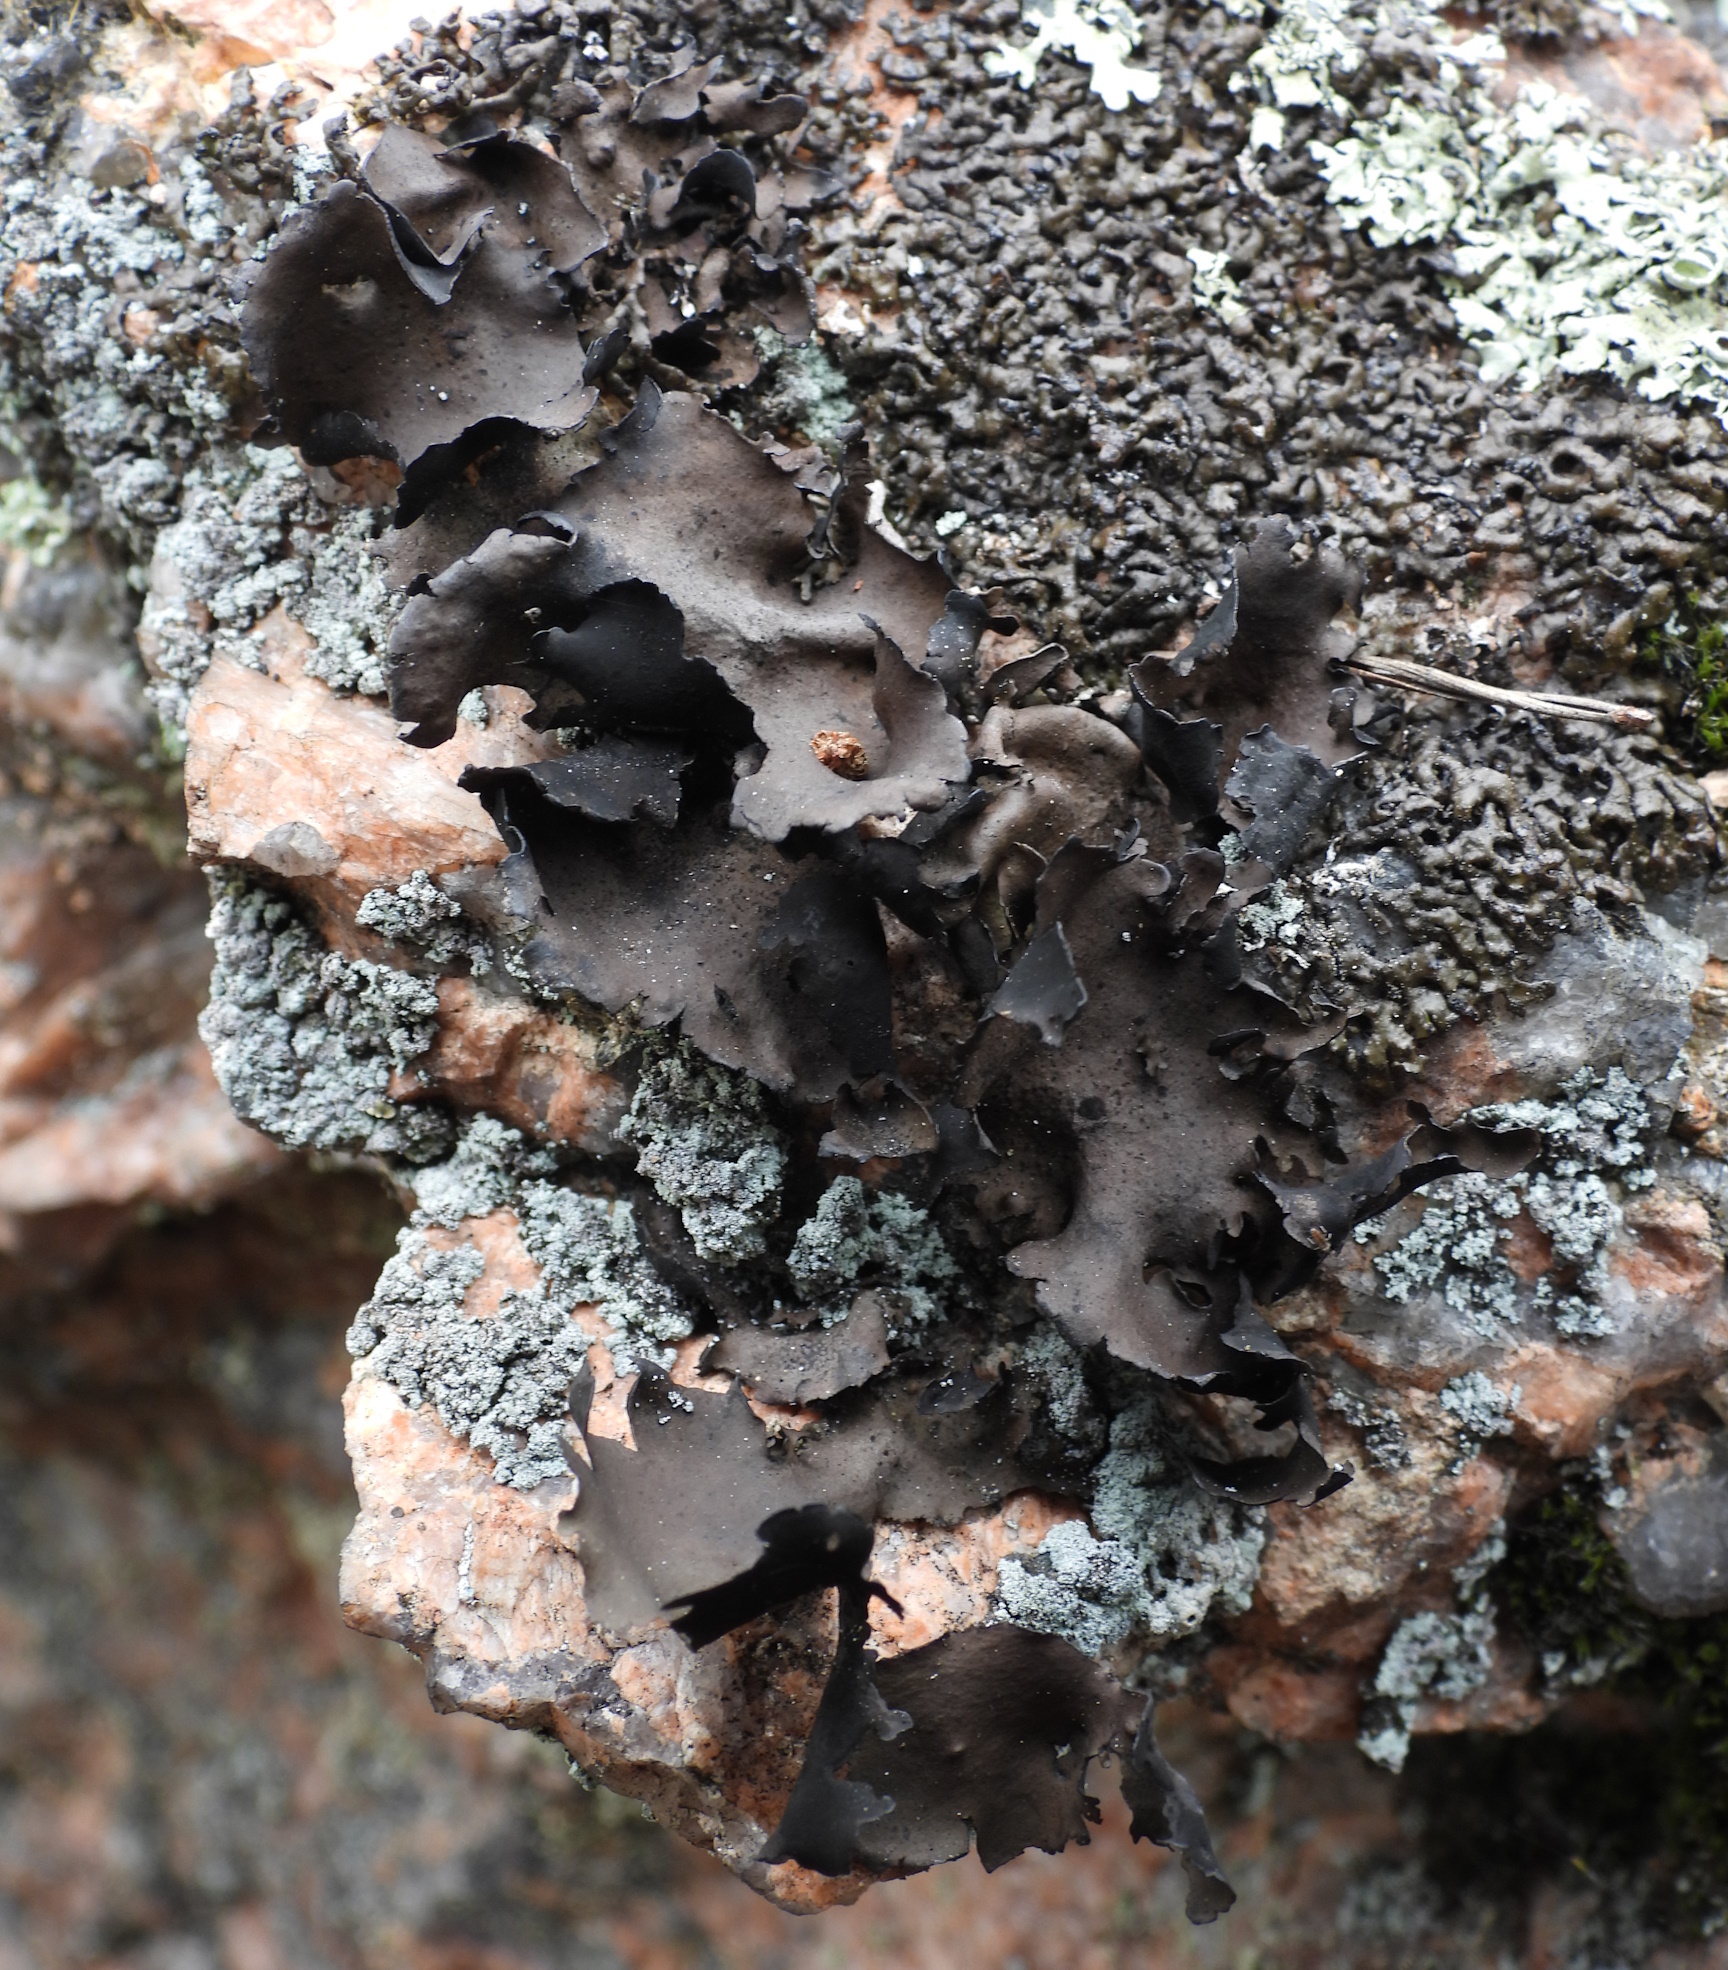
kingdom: Fungi
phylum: Ascomycota
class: Lecanoromycetes
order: Umbilicariales
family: Umbilicariaceae
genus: Umbilicaria
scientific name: Umbilicaria polyphylla
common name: Petalled rocktripe lichen
